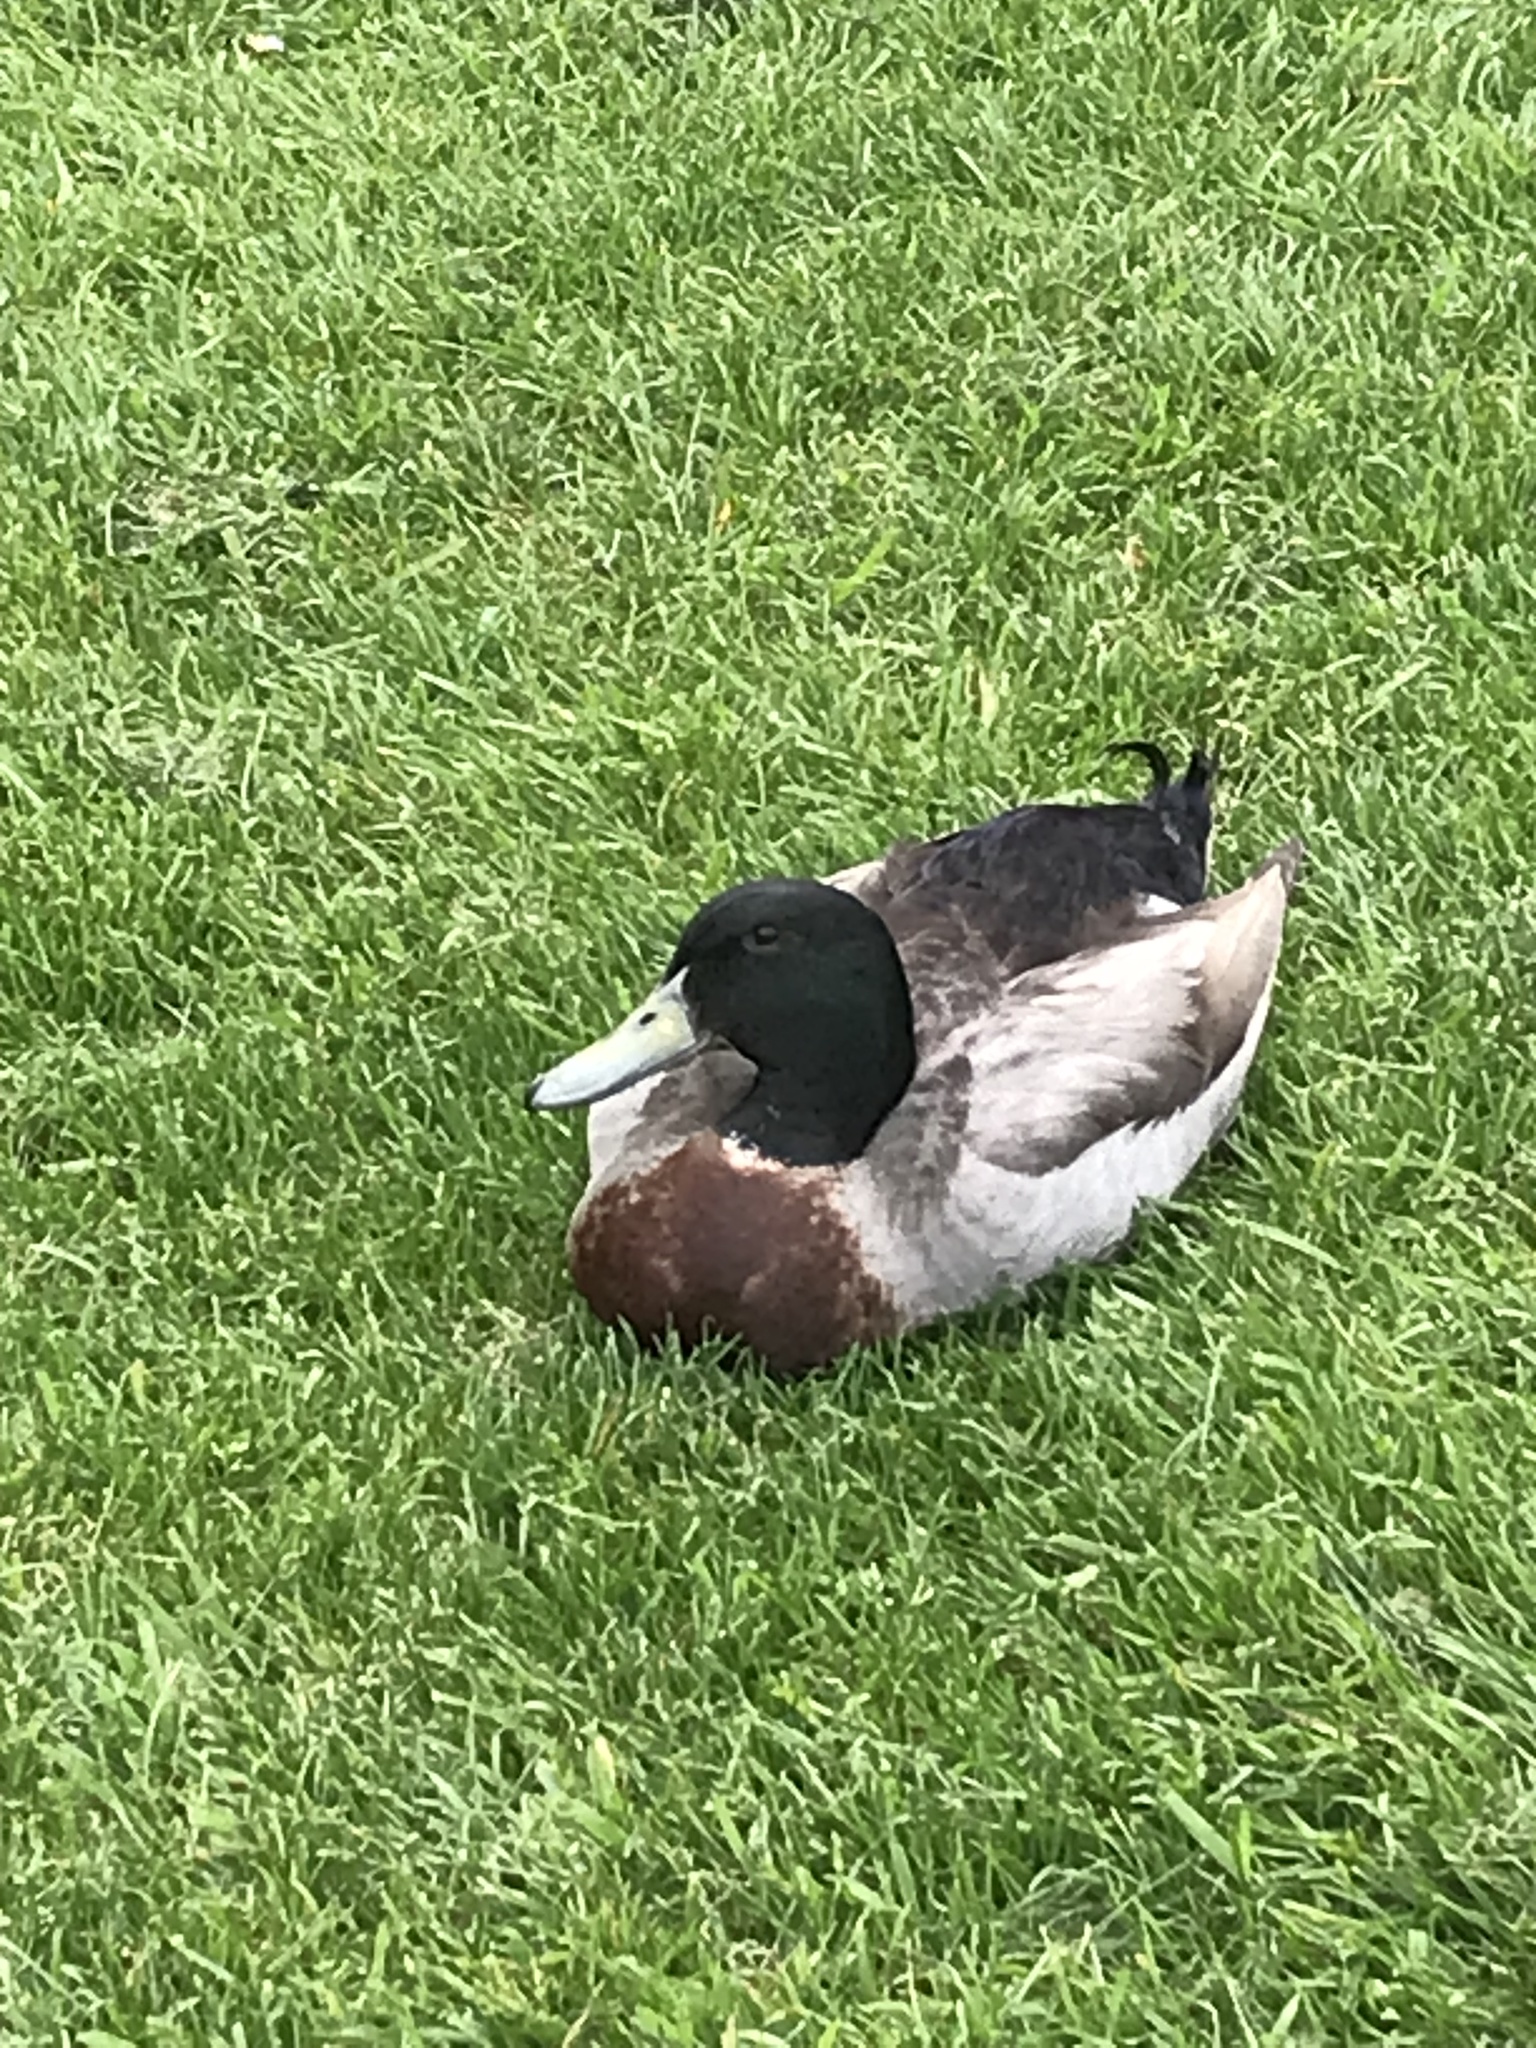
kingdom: Animalia
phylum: Chordata
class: Aves
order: Anseriformes
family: Anatidae
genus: Anas
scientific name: Anas platyrhynchos
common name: Mallard
